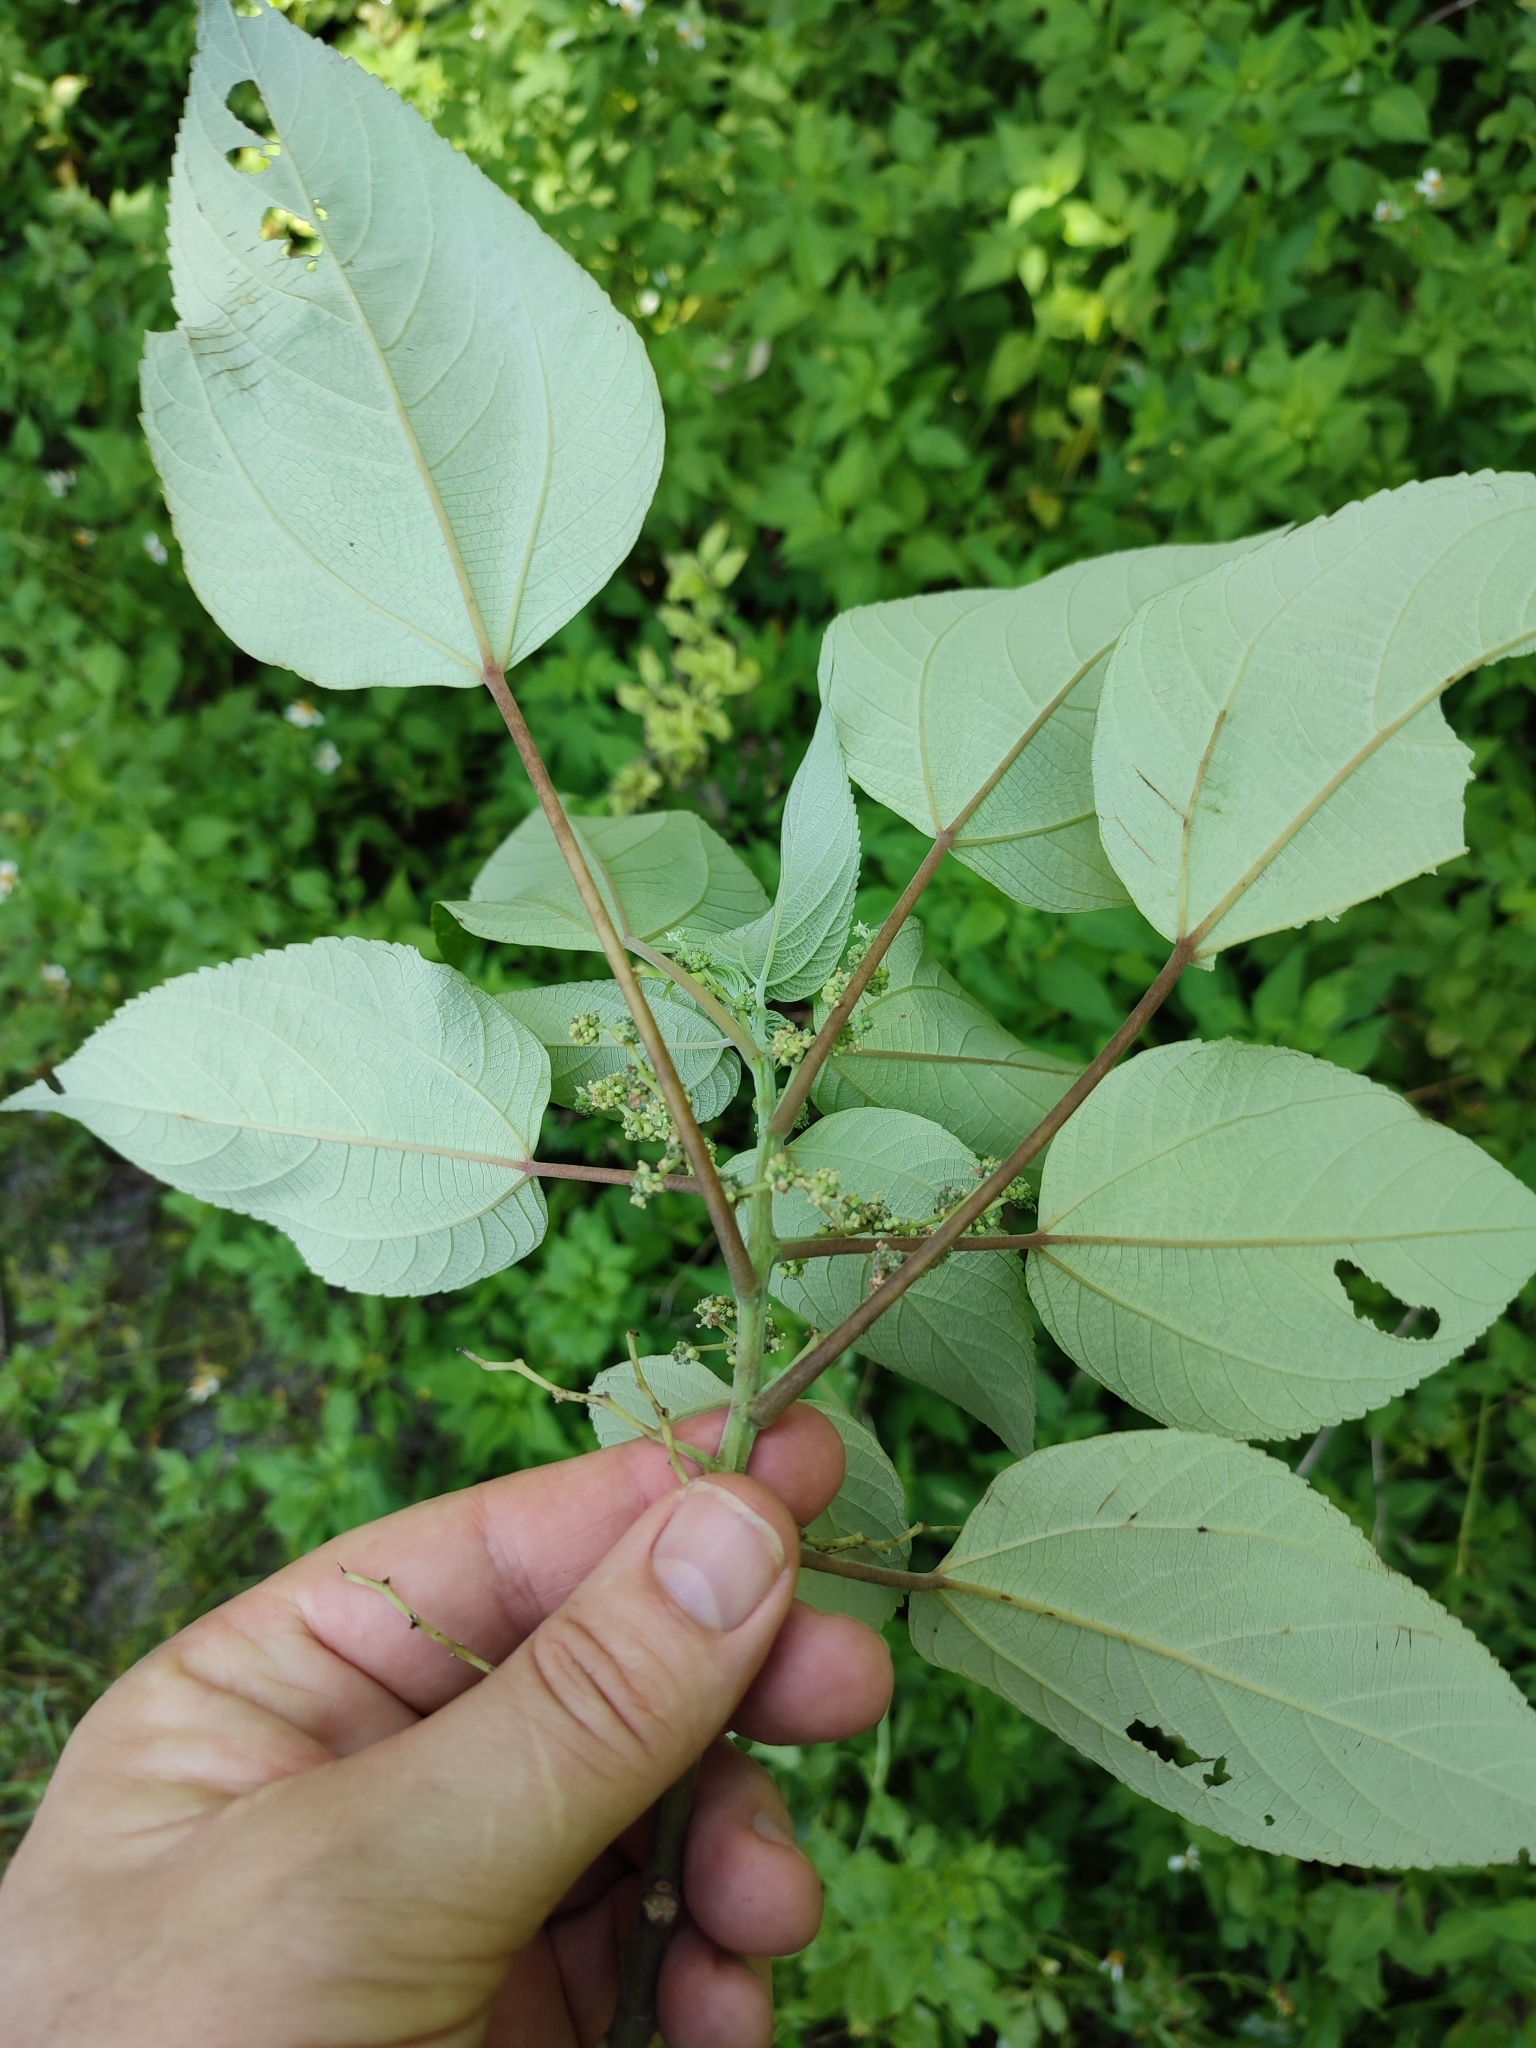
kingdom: Plantae
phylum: Tracheophyta
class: Magnoliopsida
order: Rosales
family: Urticaceae
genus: Pipturus
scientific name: Pipturus argenteus
